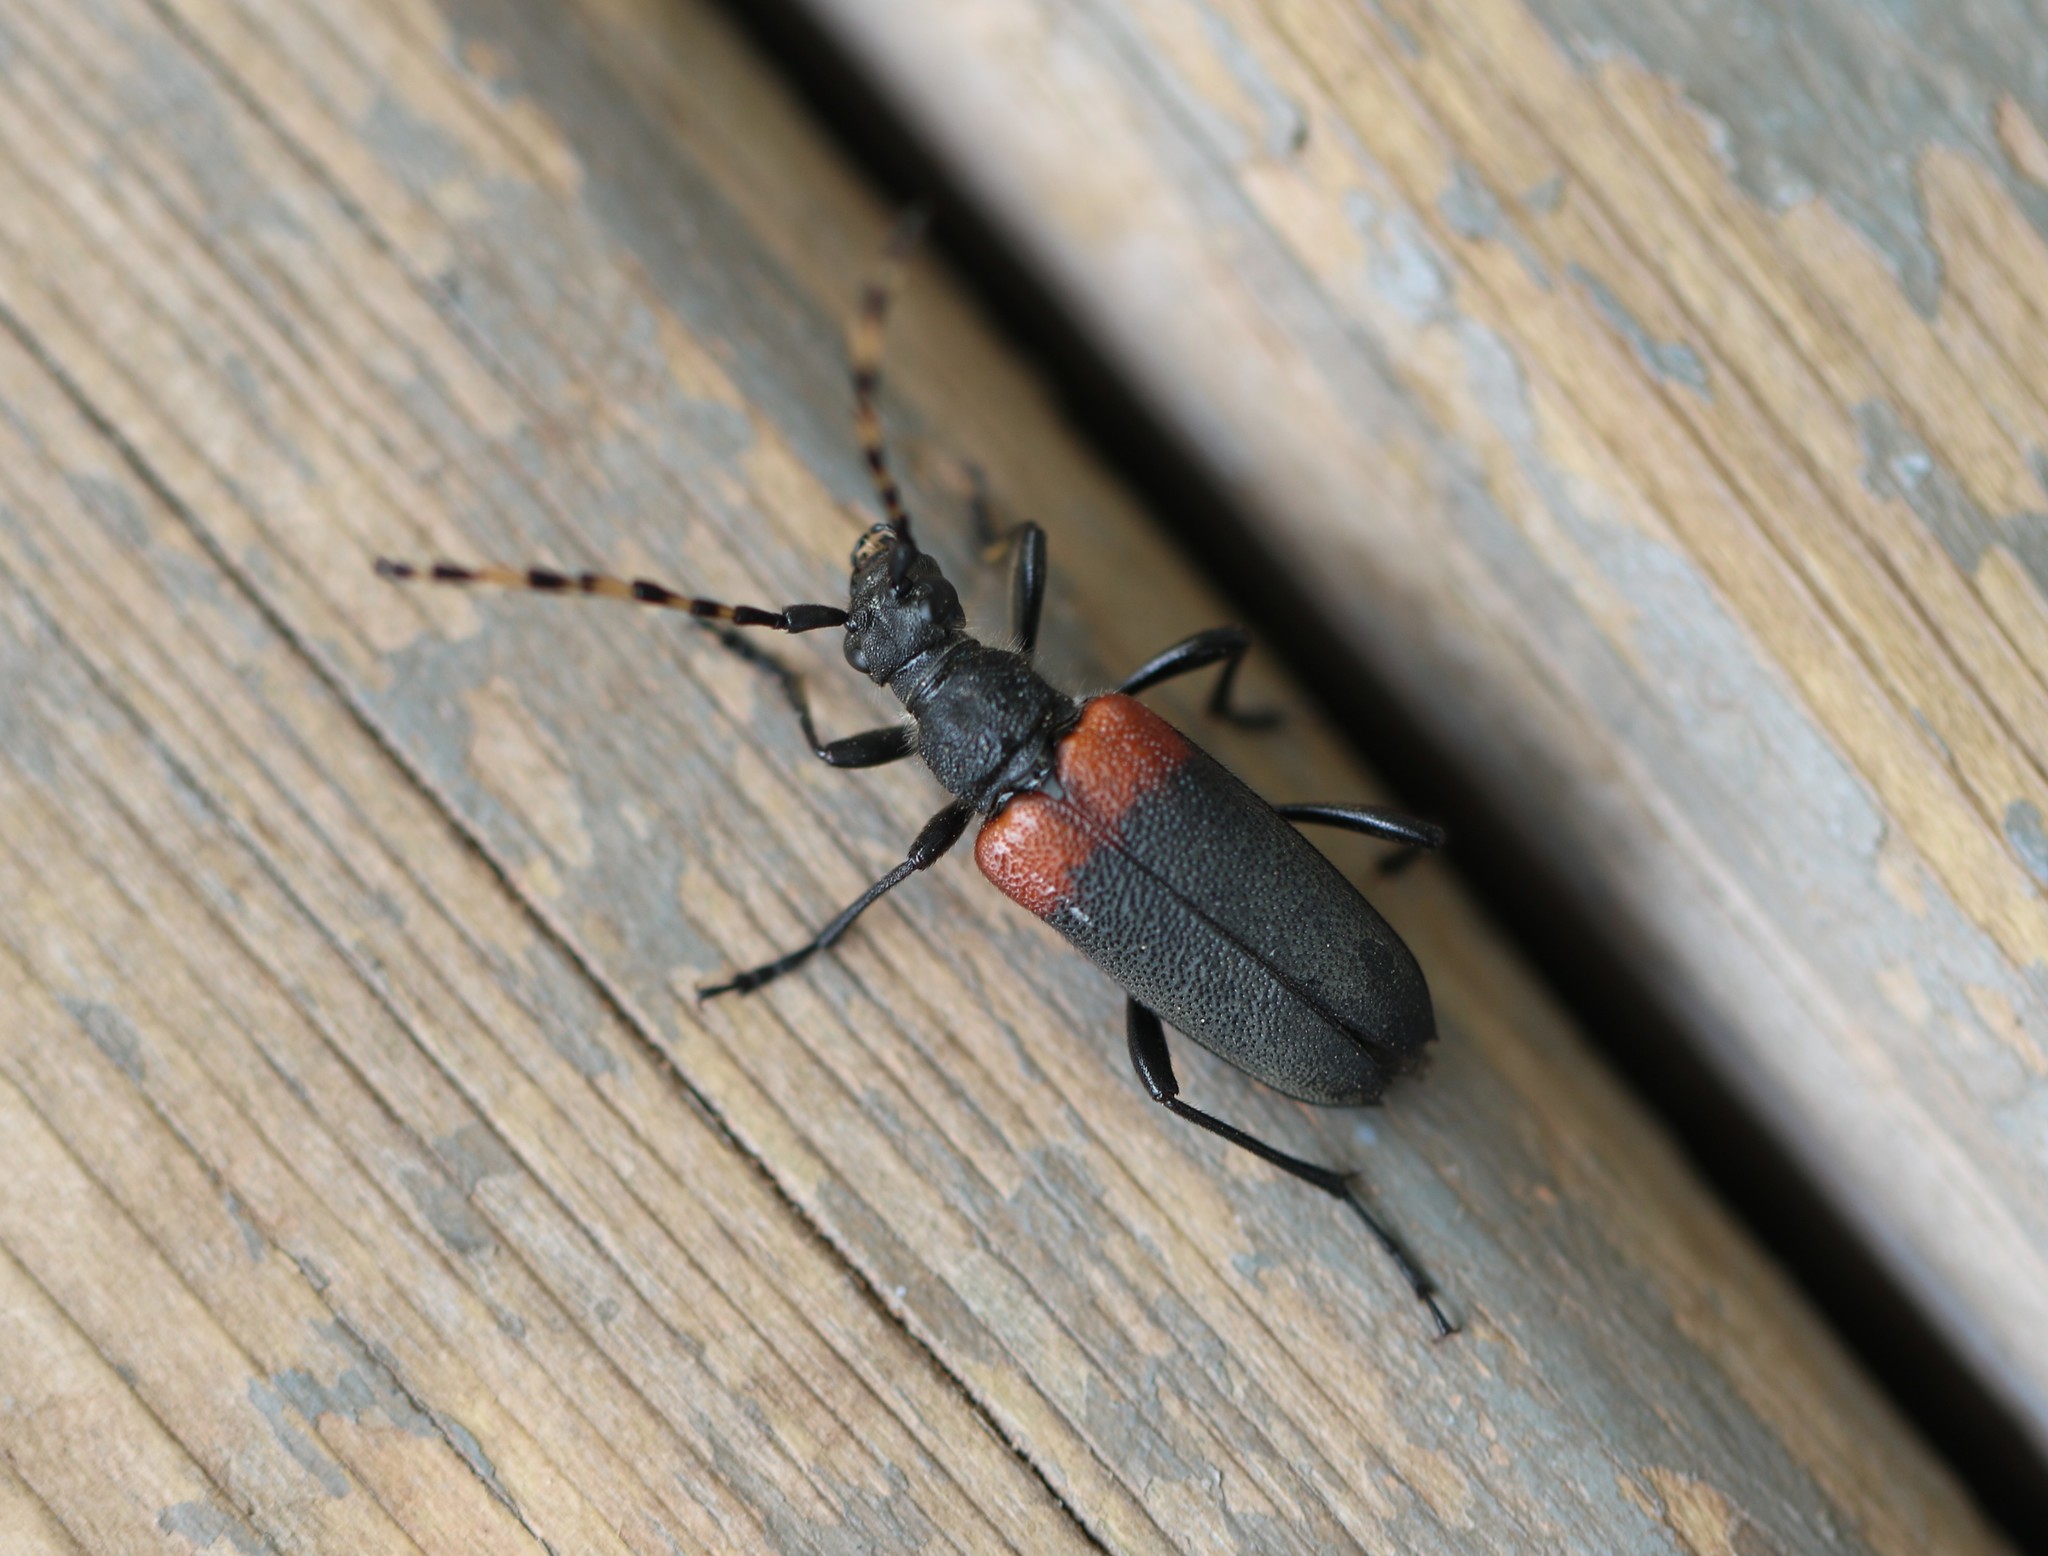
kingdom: Animalia
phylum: Arthropoda
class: Insecta
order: Coleoptera
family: Cerambycidae
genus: Stictoleptura
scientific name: Stictoleptura canadensis
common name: Red-shouldered pine borer
